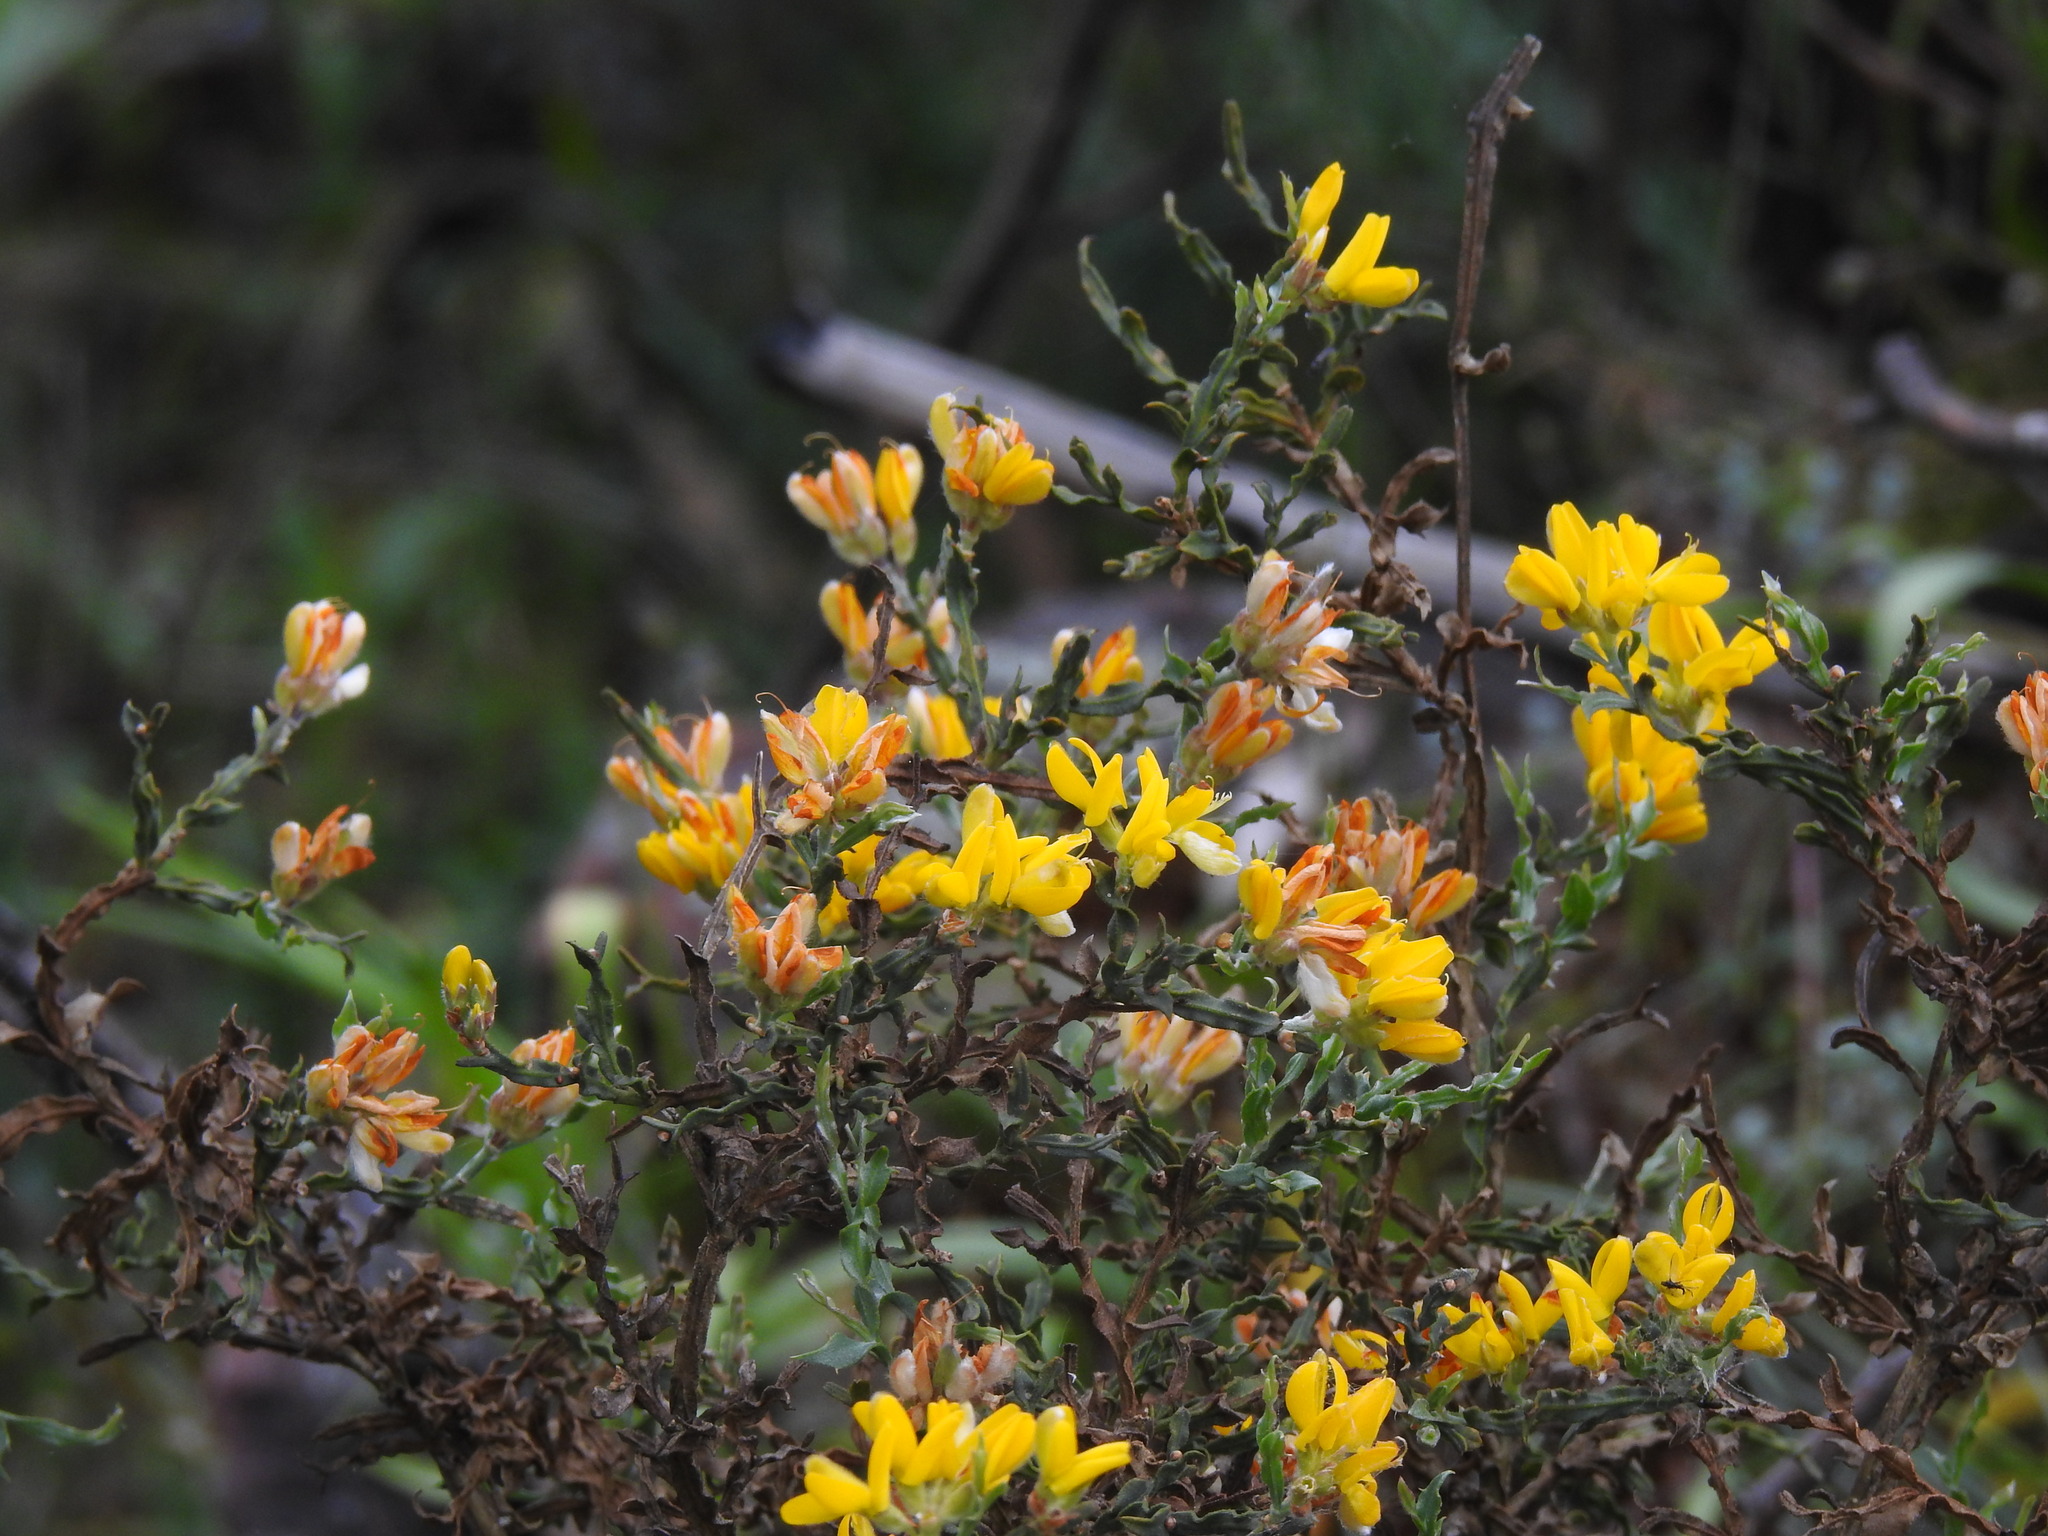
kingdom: Plantae
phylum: Tracheophyta
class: Magnoliopsida
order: Fabales
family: Fabaceae
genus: Genista
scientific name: Genista tridentata
